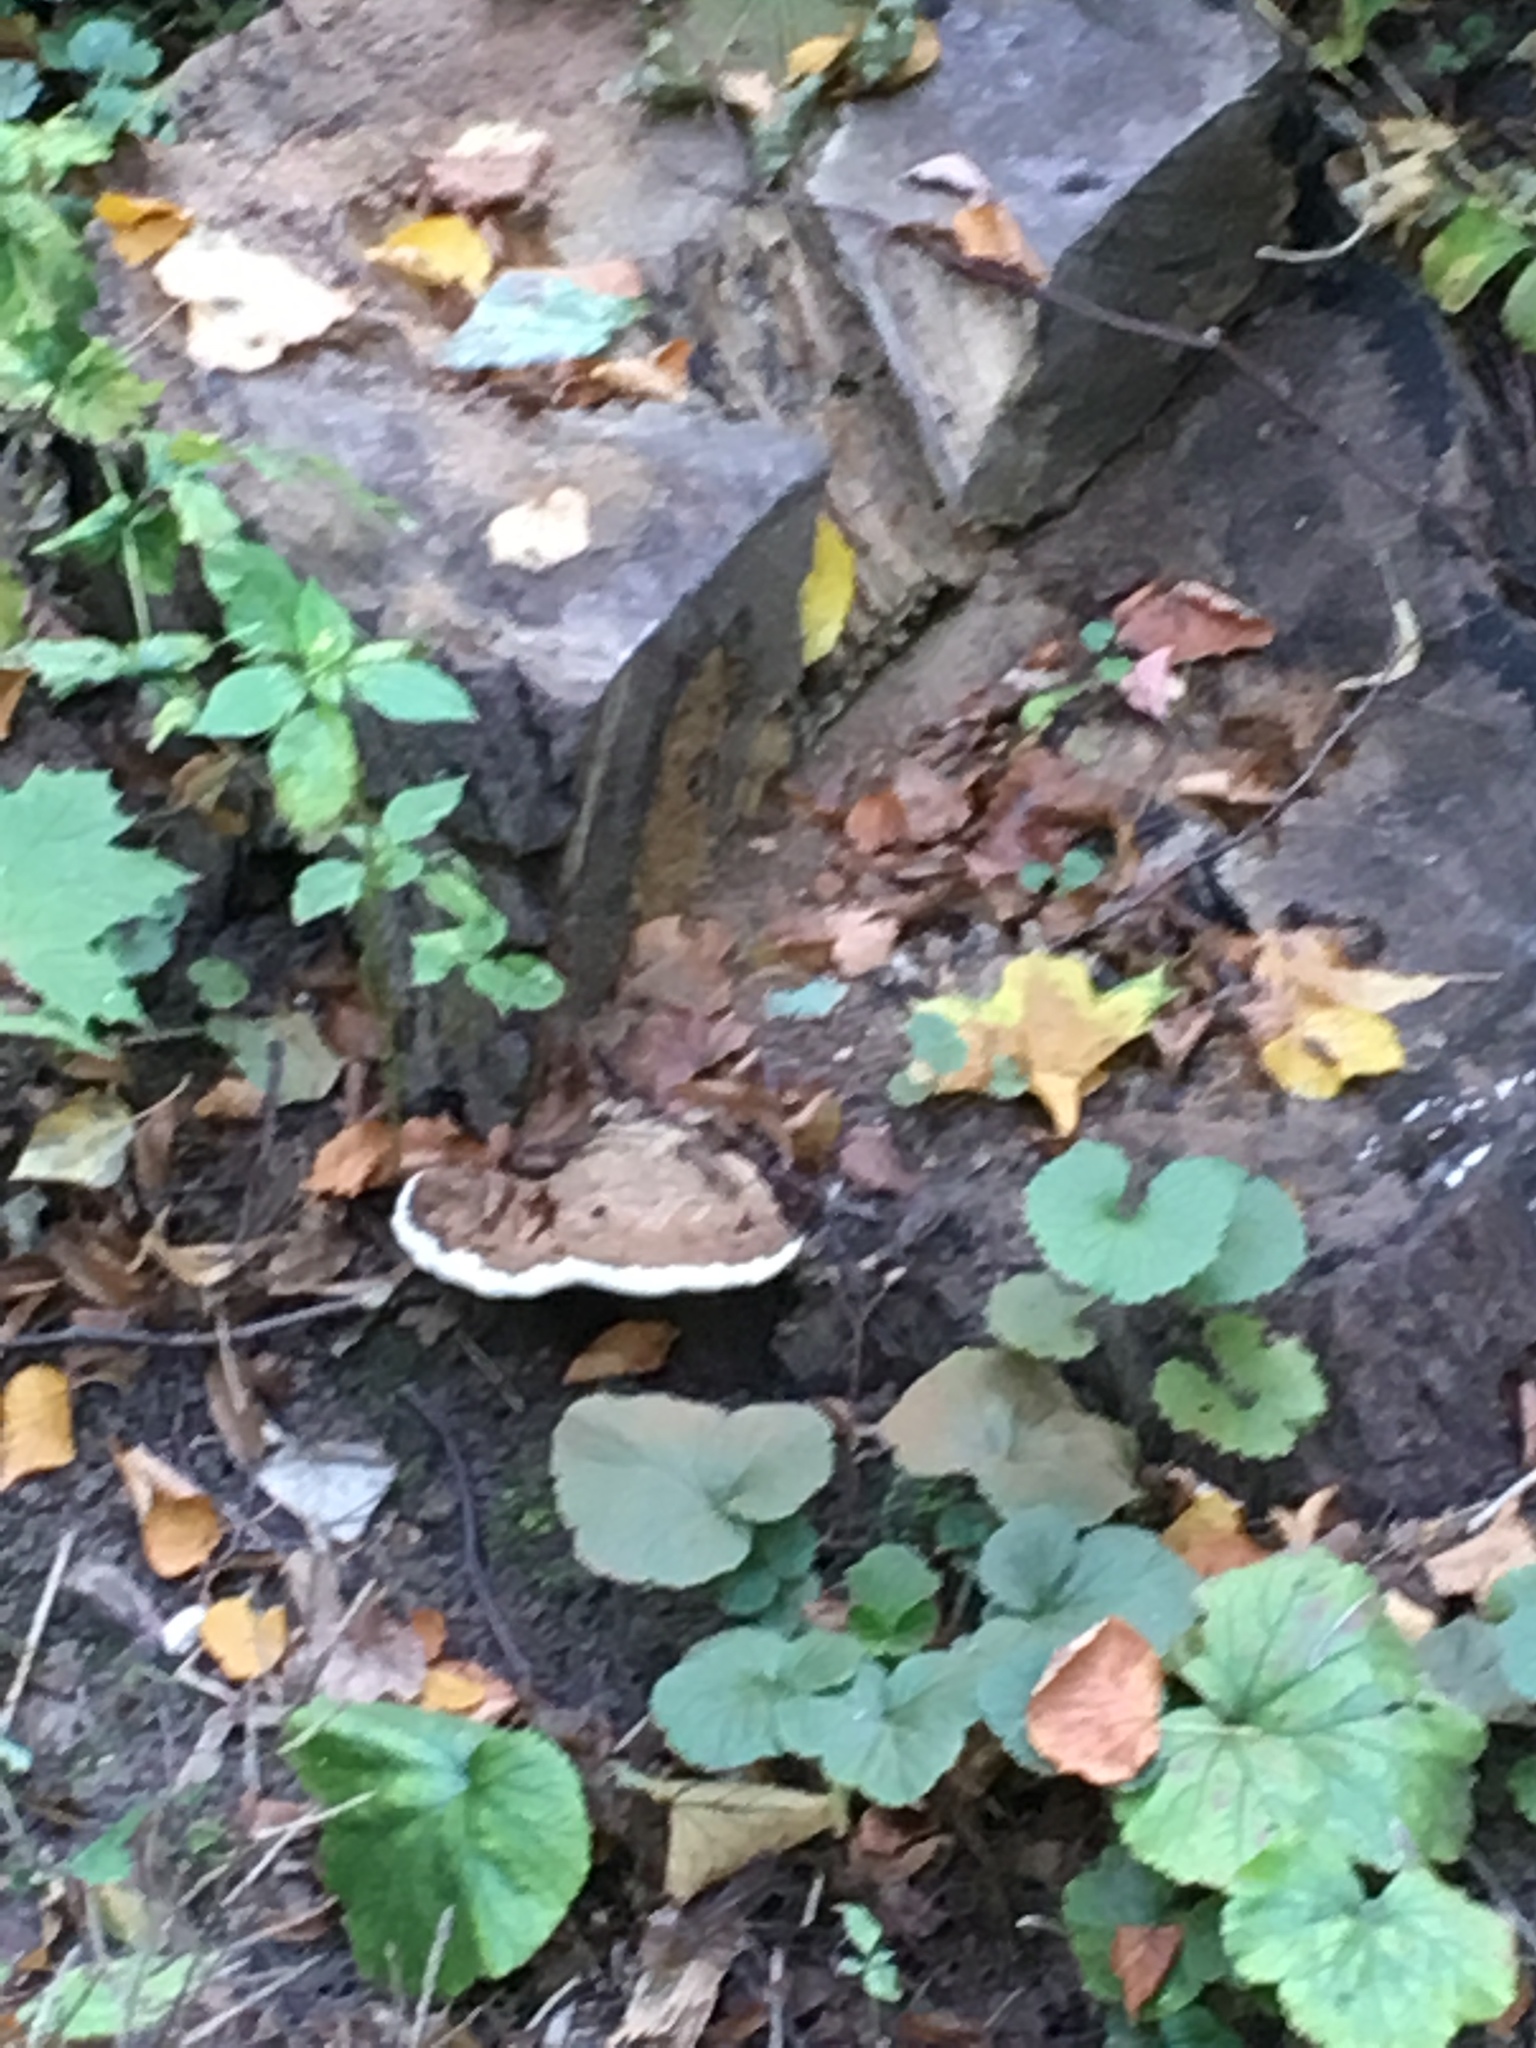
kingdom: Fungi
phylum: Basidiomycota
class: Agaricomycetes
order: Polyporales
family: Polyporaceae
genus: Ganoderma
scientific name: Ganoderma applanatum
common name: Artist's bracket
